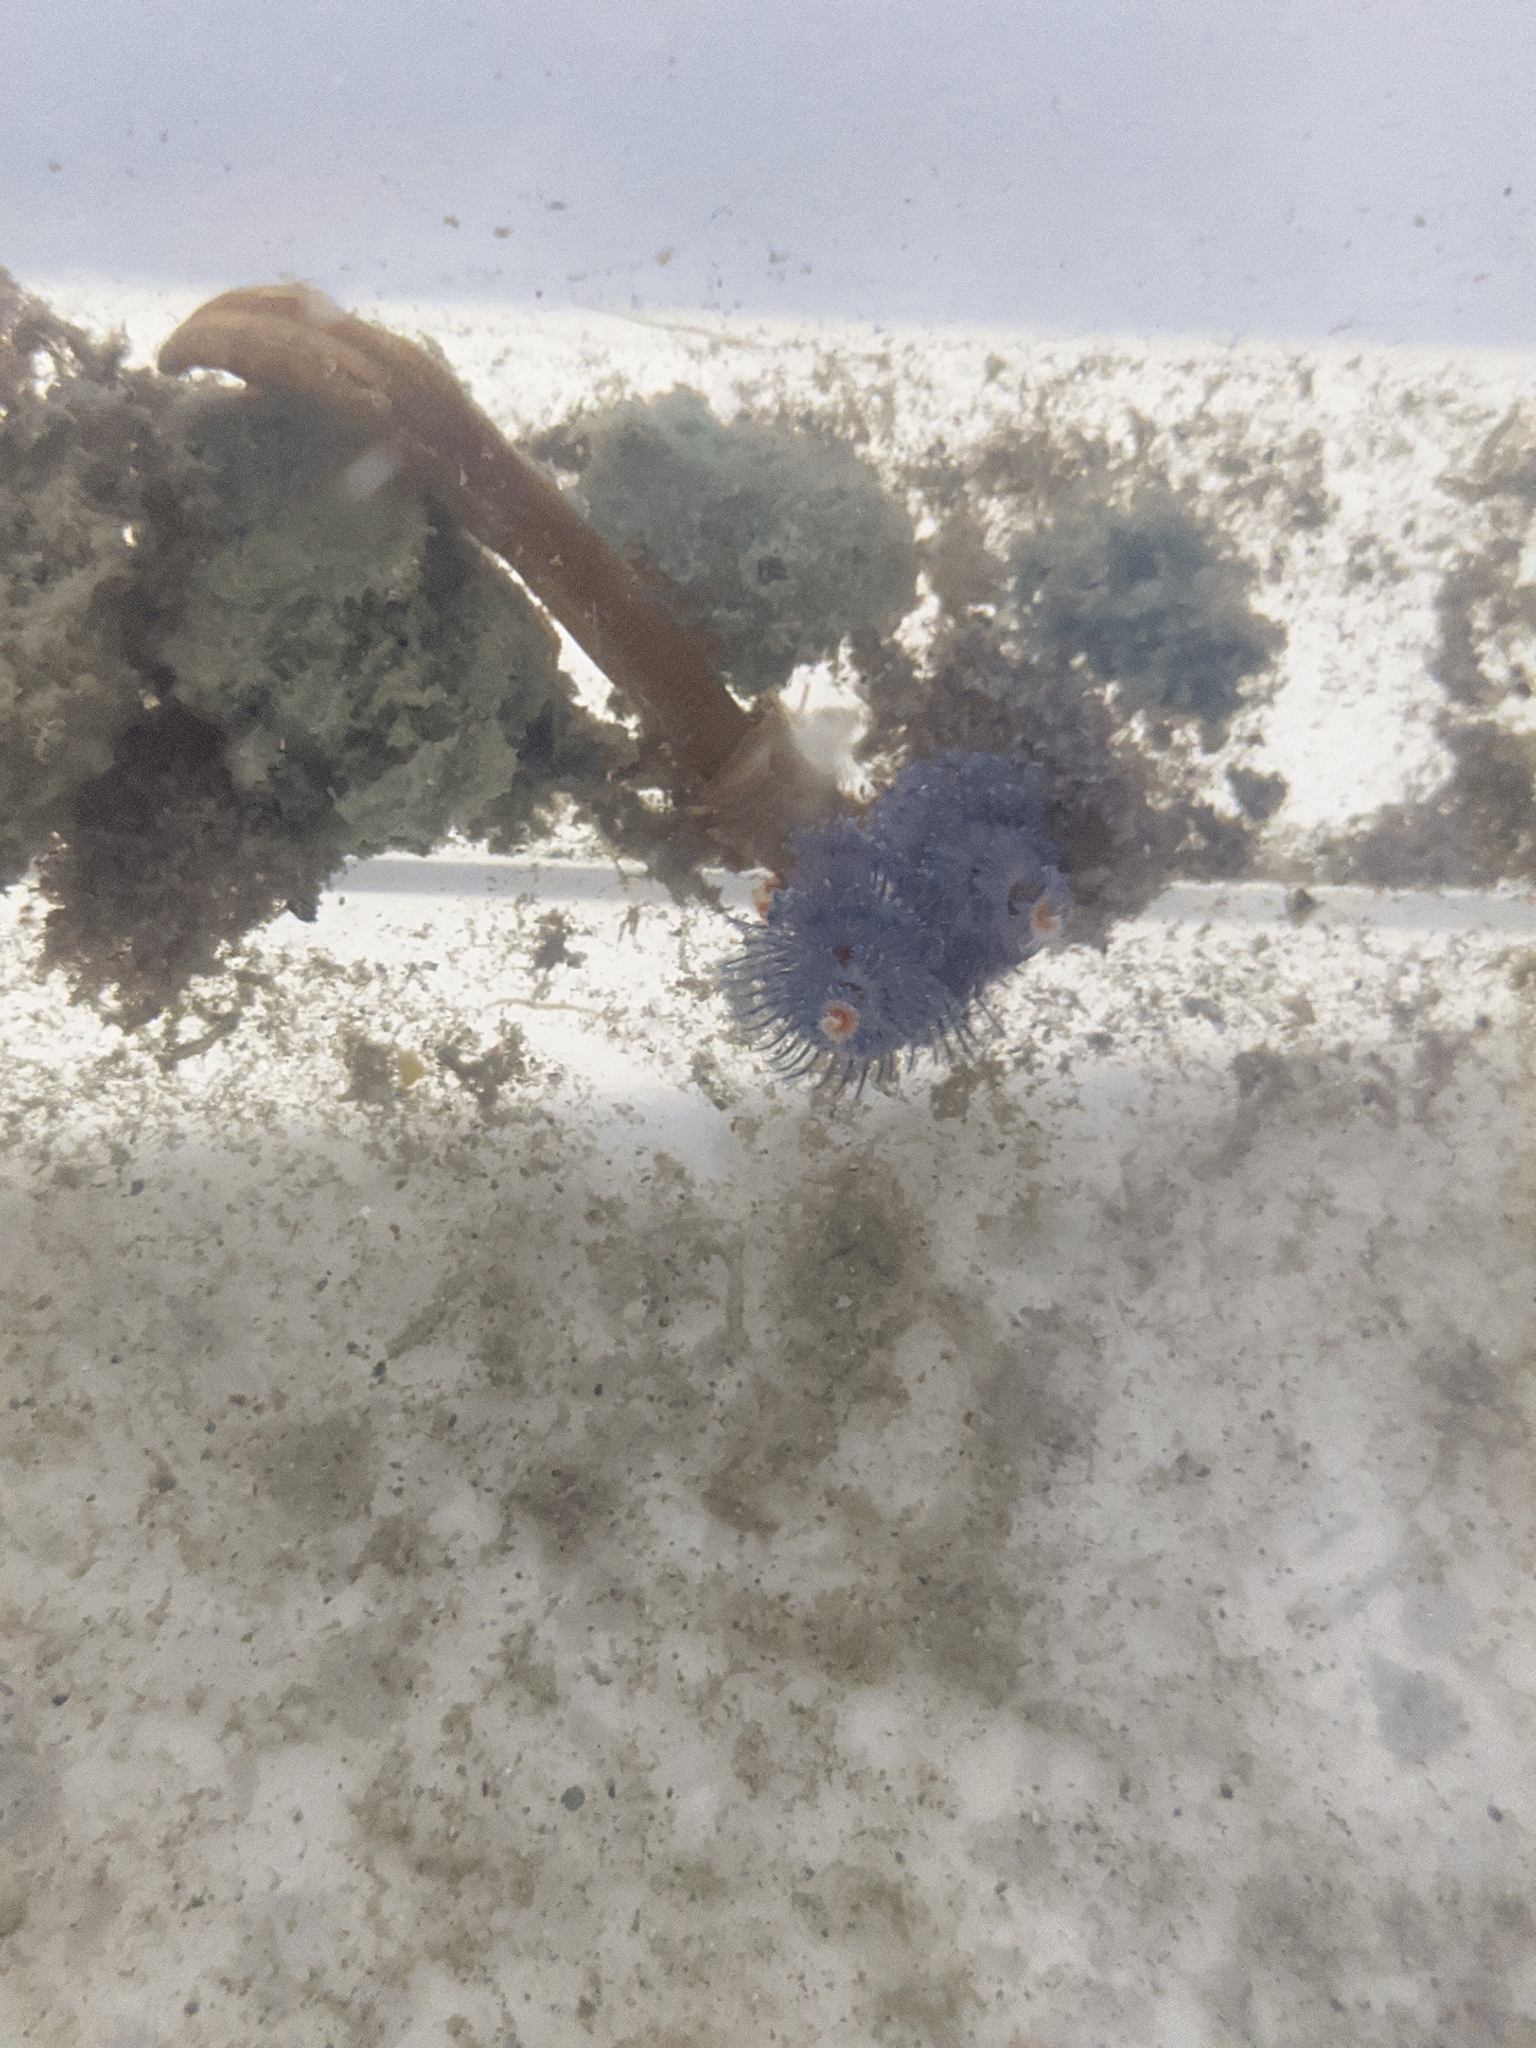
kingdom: Animalia
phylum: Annelida
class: Polychaeta
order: Sabellida
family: Serpulidae
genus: Spirobranchus
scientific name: Spirobranchus giganteus
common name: Christmas tree worm
